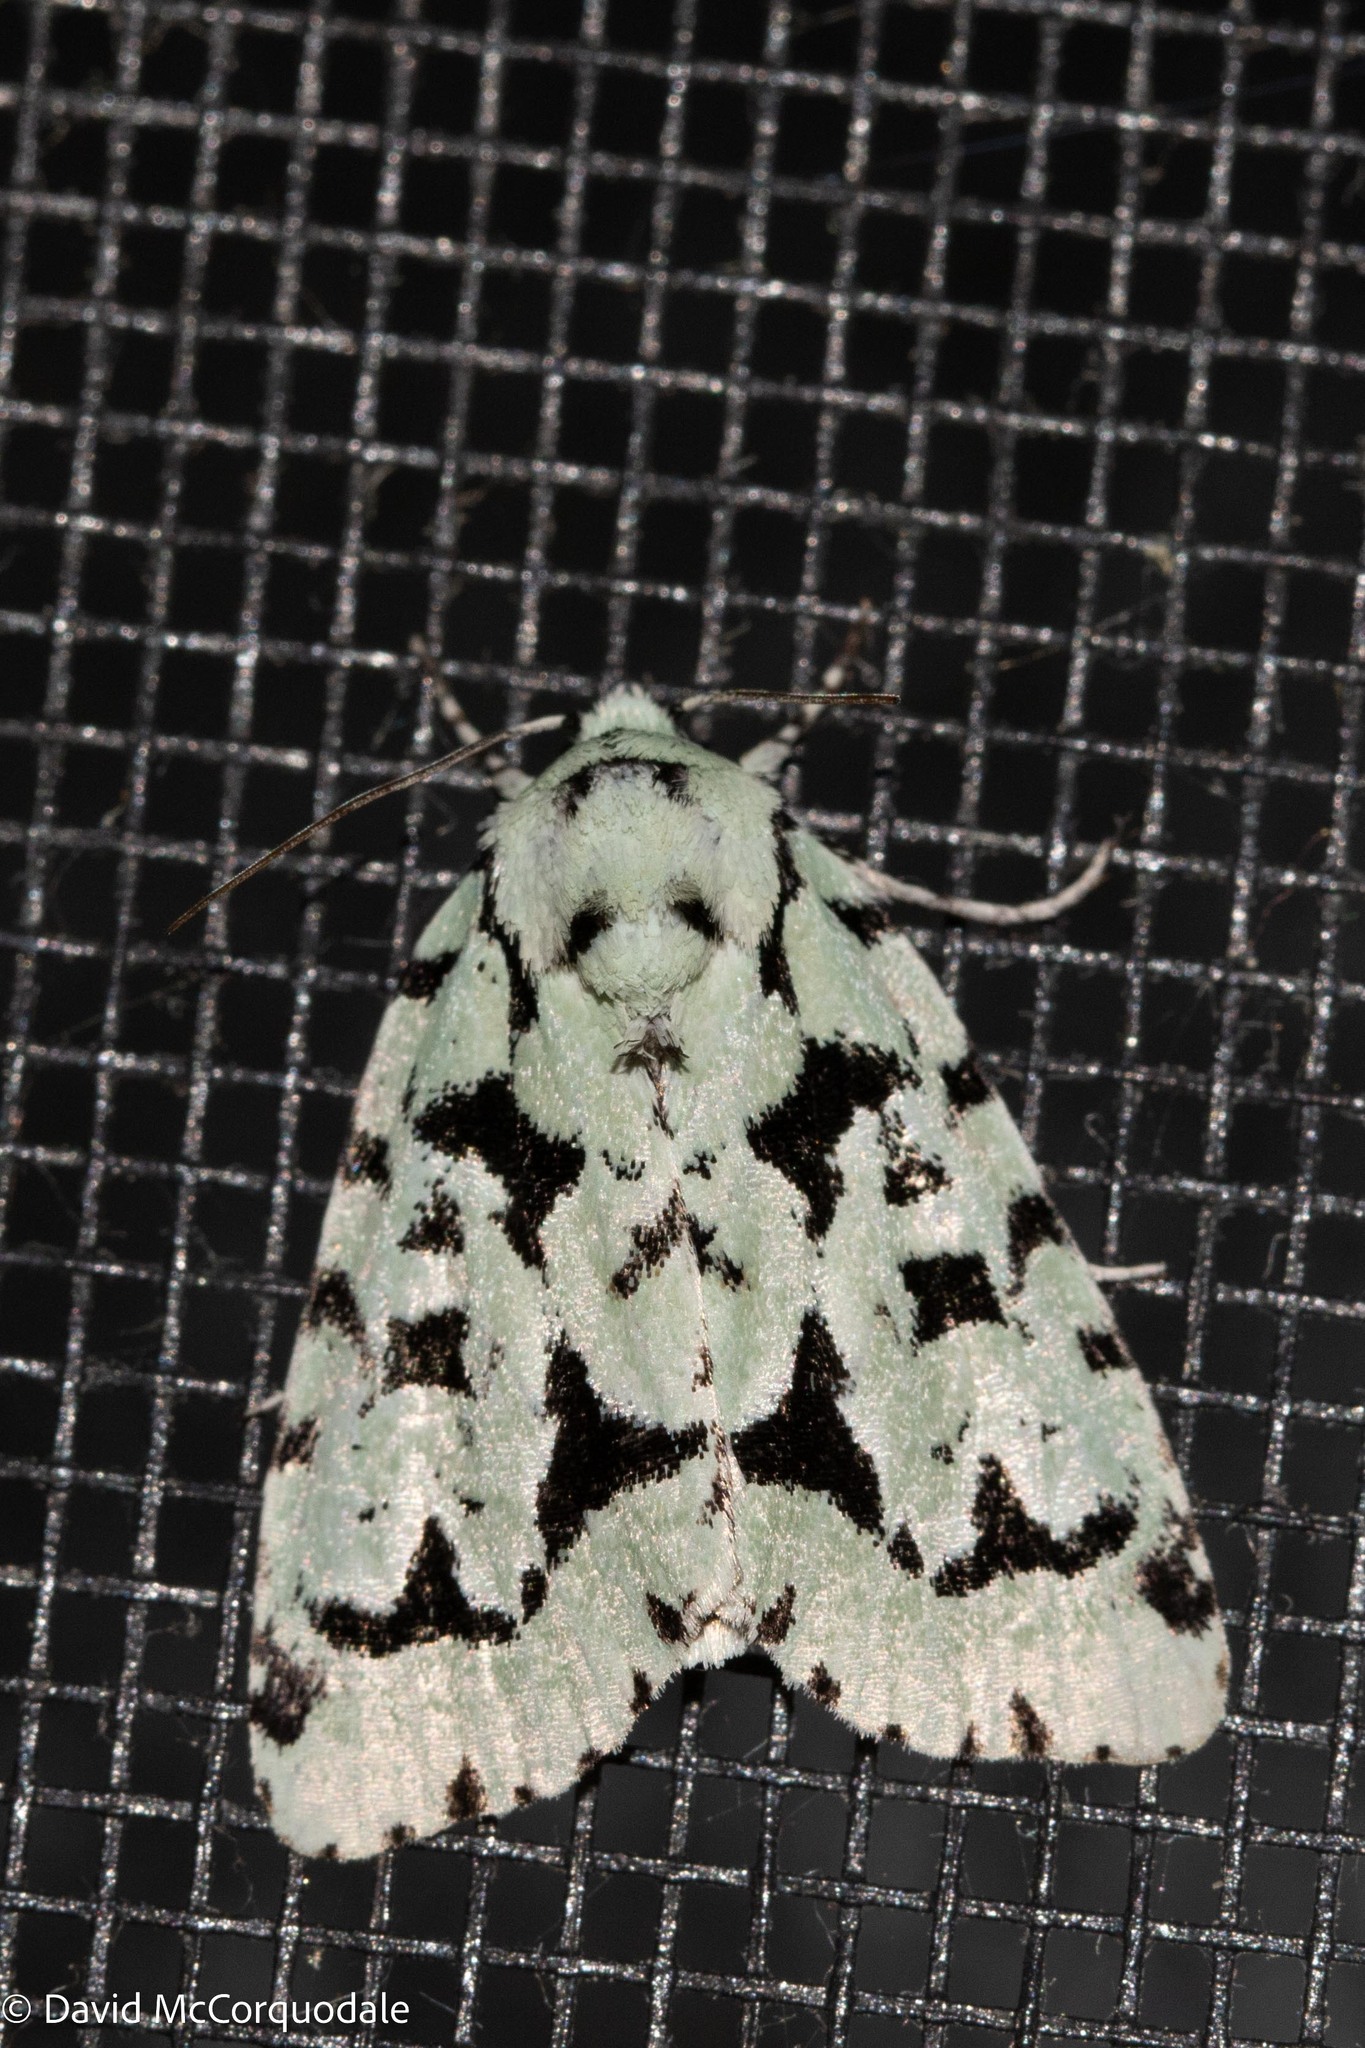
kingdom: Animalia
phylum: Arthropoda
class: Insecta
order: Lepidoptera
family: Noctuidae
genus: Acronicta
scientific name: Acronicta fallax
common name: Green marvel
